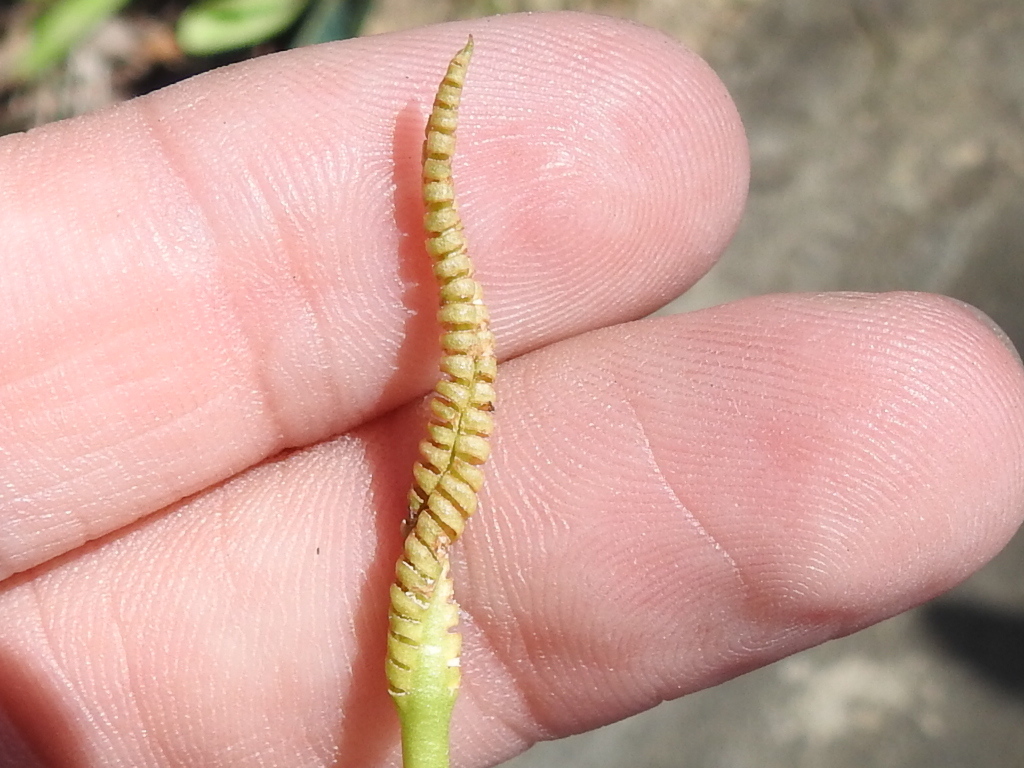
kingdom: Plantae
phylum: Tracheophyta
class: Polypodiopsida
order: Ophioglossales
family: Ophioglossaceae
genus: Ophioglossum
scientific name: Ophioglossum engelmannii
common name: Limestone adder's-tongue
